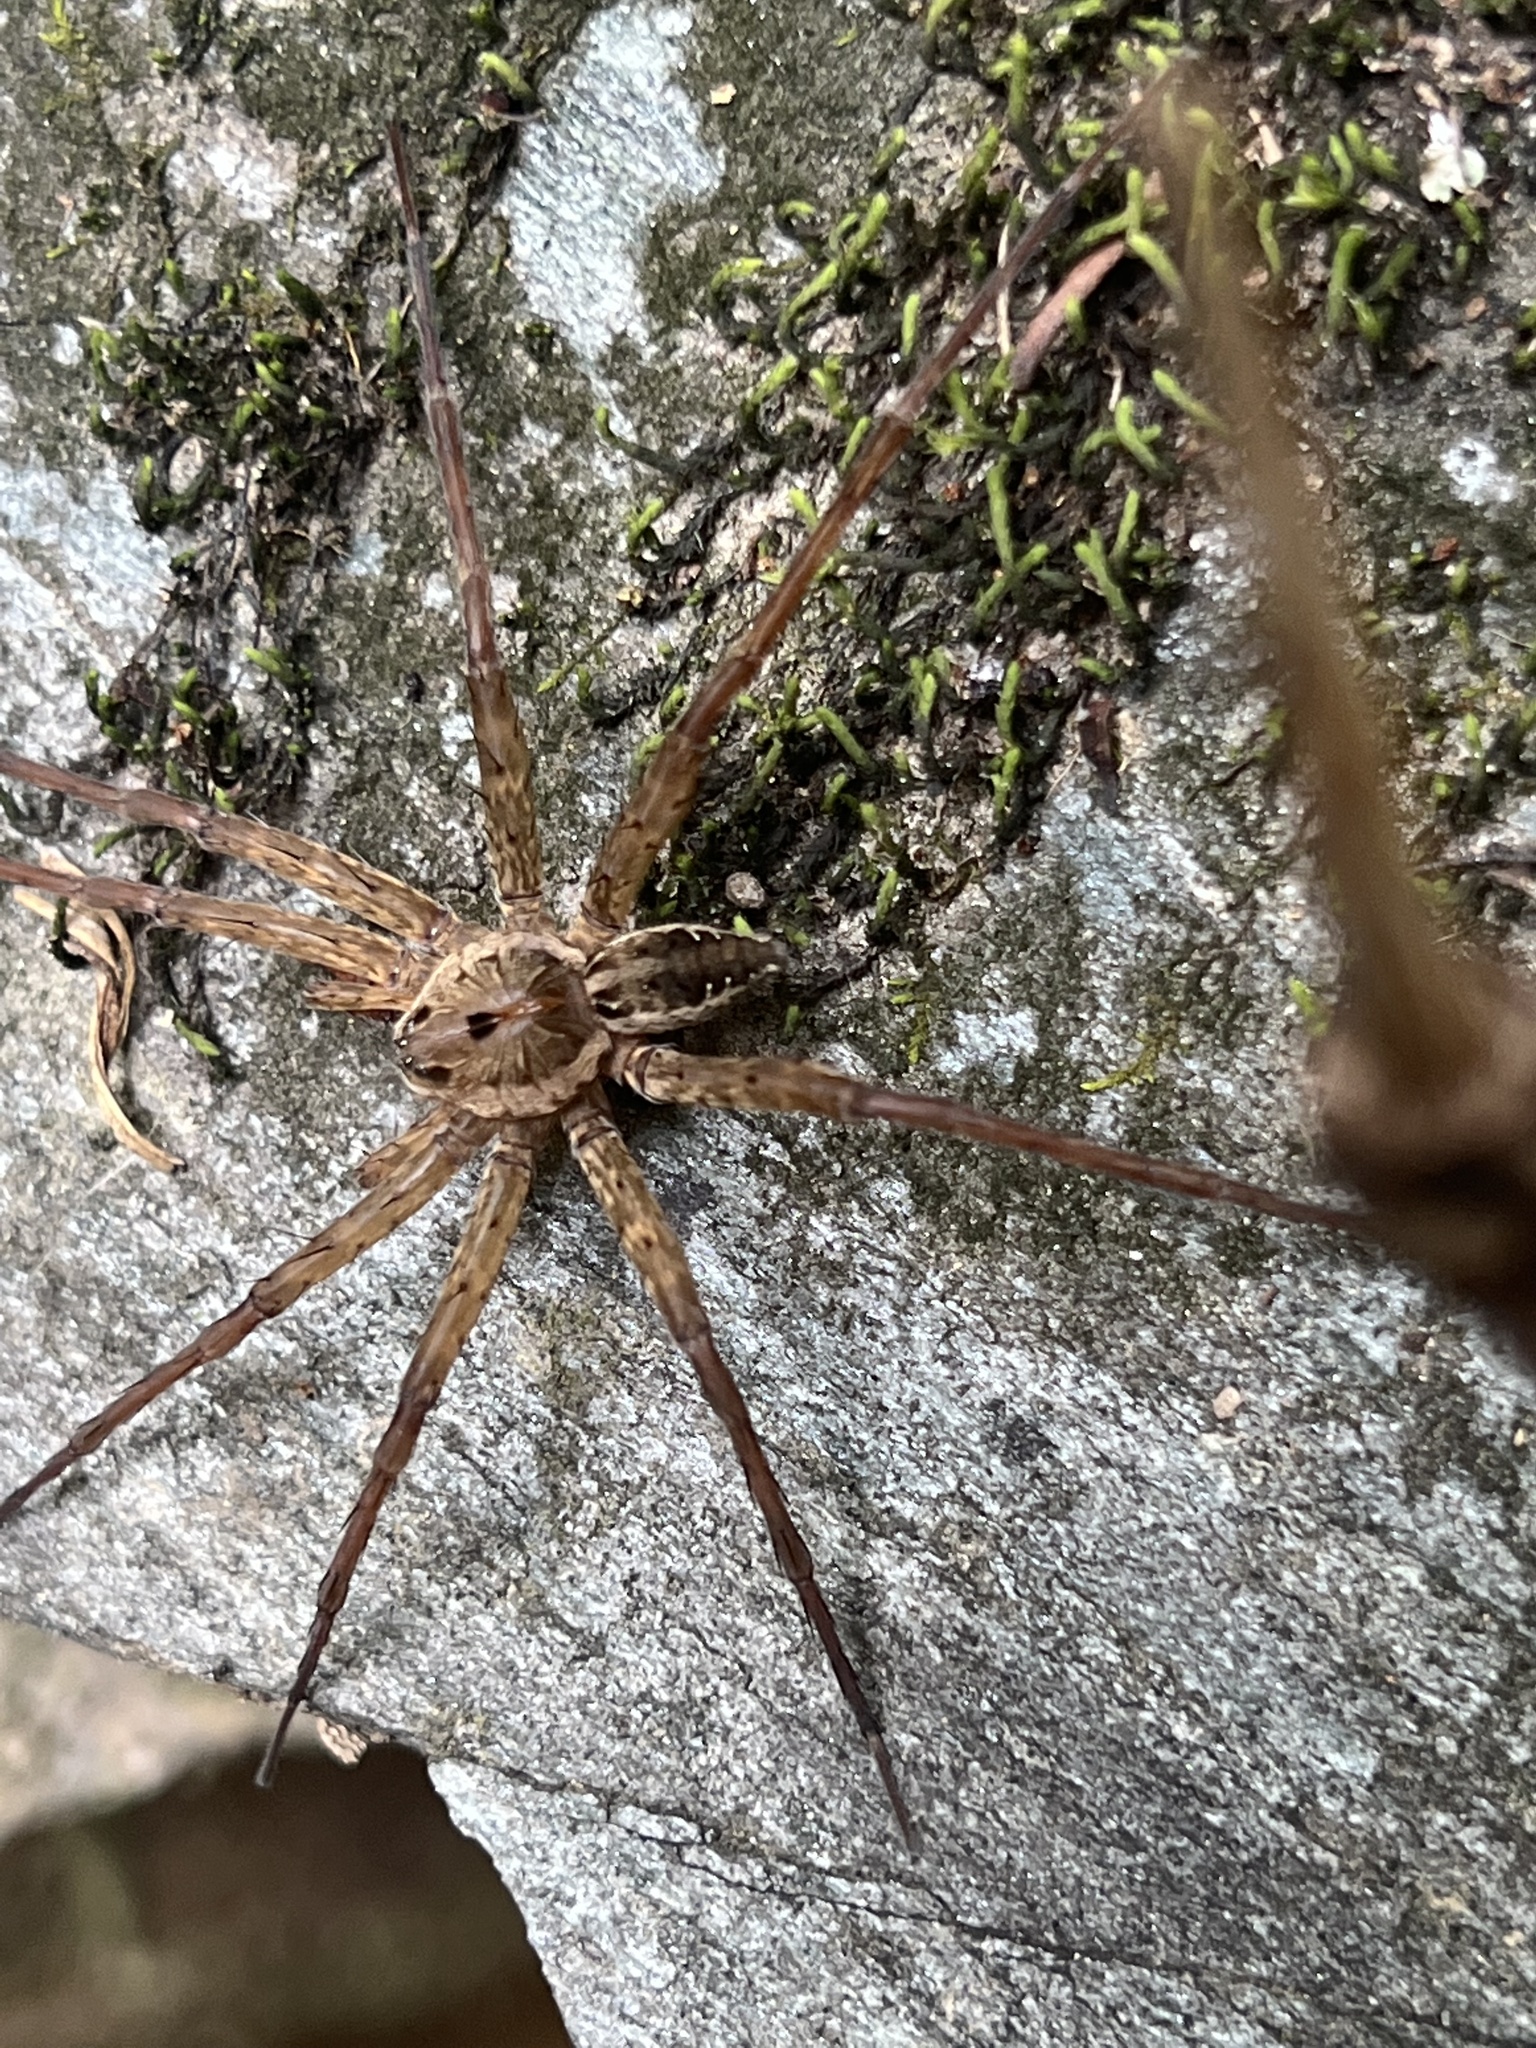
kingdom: Animalia
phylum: Arthropoda
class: Arachnida
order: Araneae
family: Pisauridae
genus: Dolomedes
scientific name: Dolomedes vittatus
